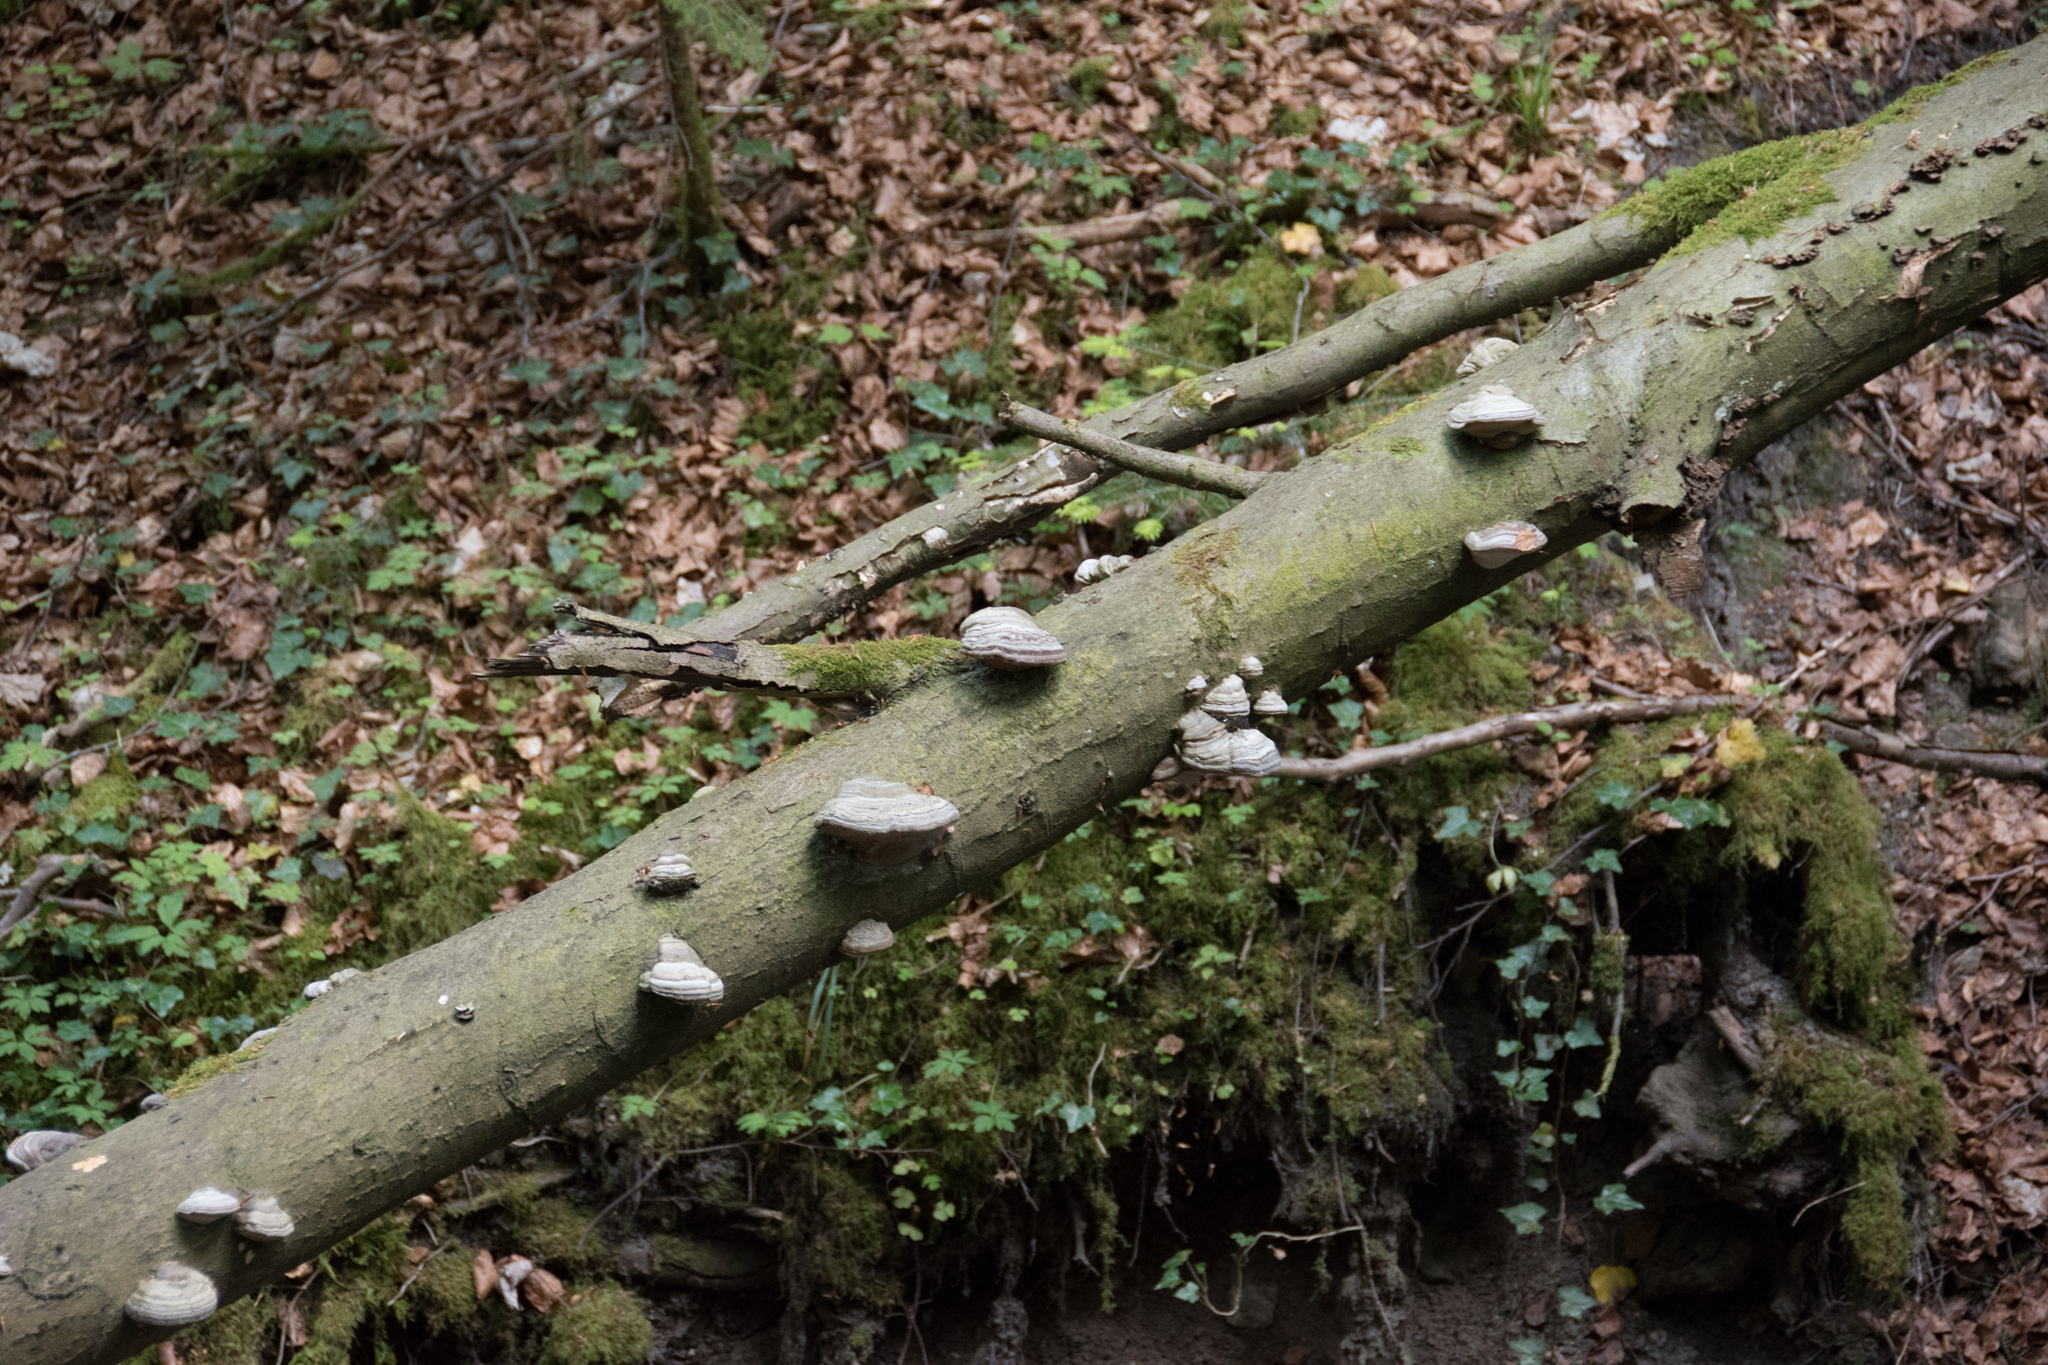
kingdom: Fungi
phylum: Basidiomycota
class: Agaricomycetes
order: Polyporales
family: Polyporaceae
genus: Fomes
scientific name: Fomes fomentarius
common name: Hoof fungus
